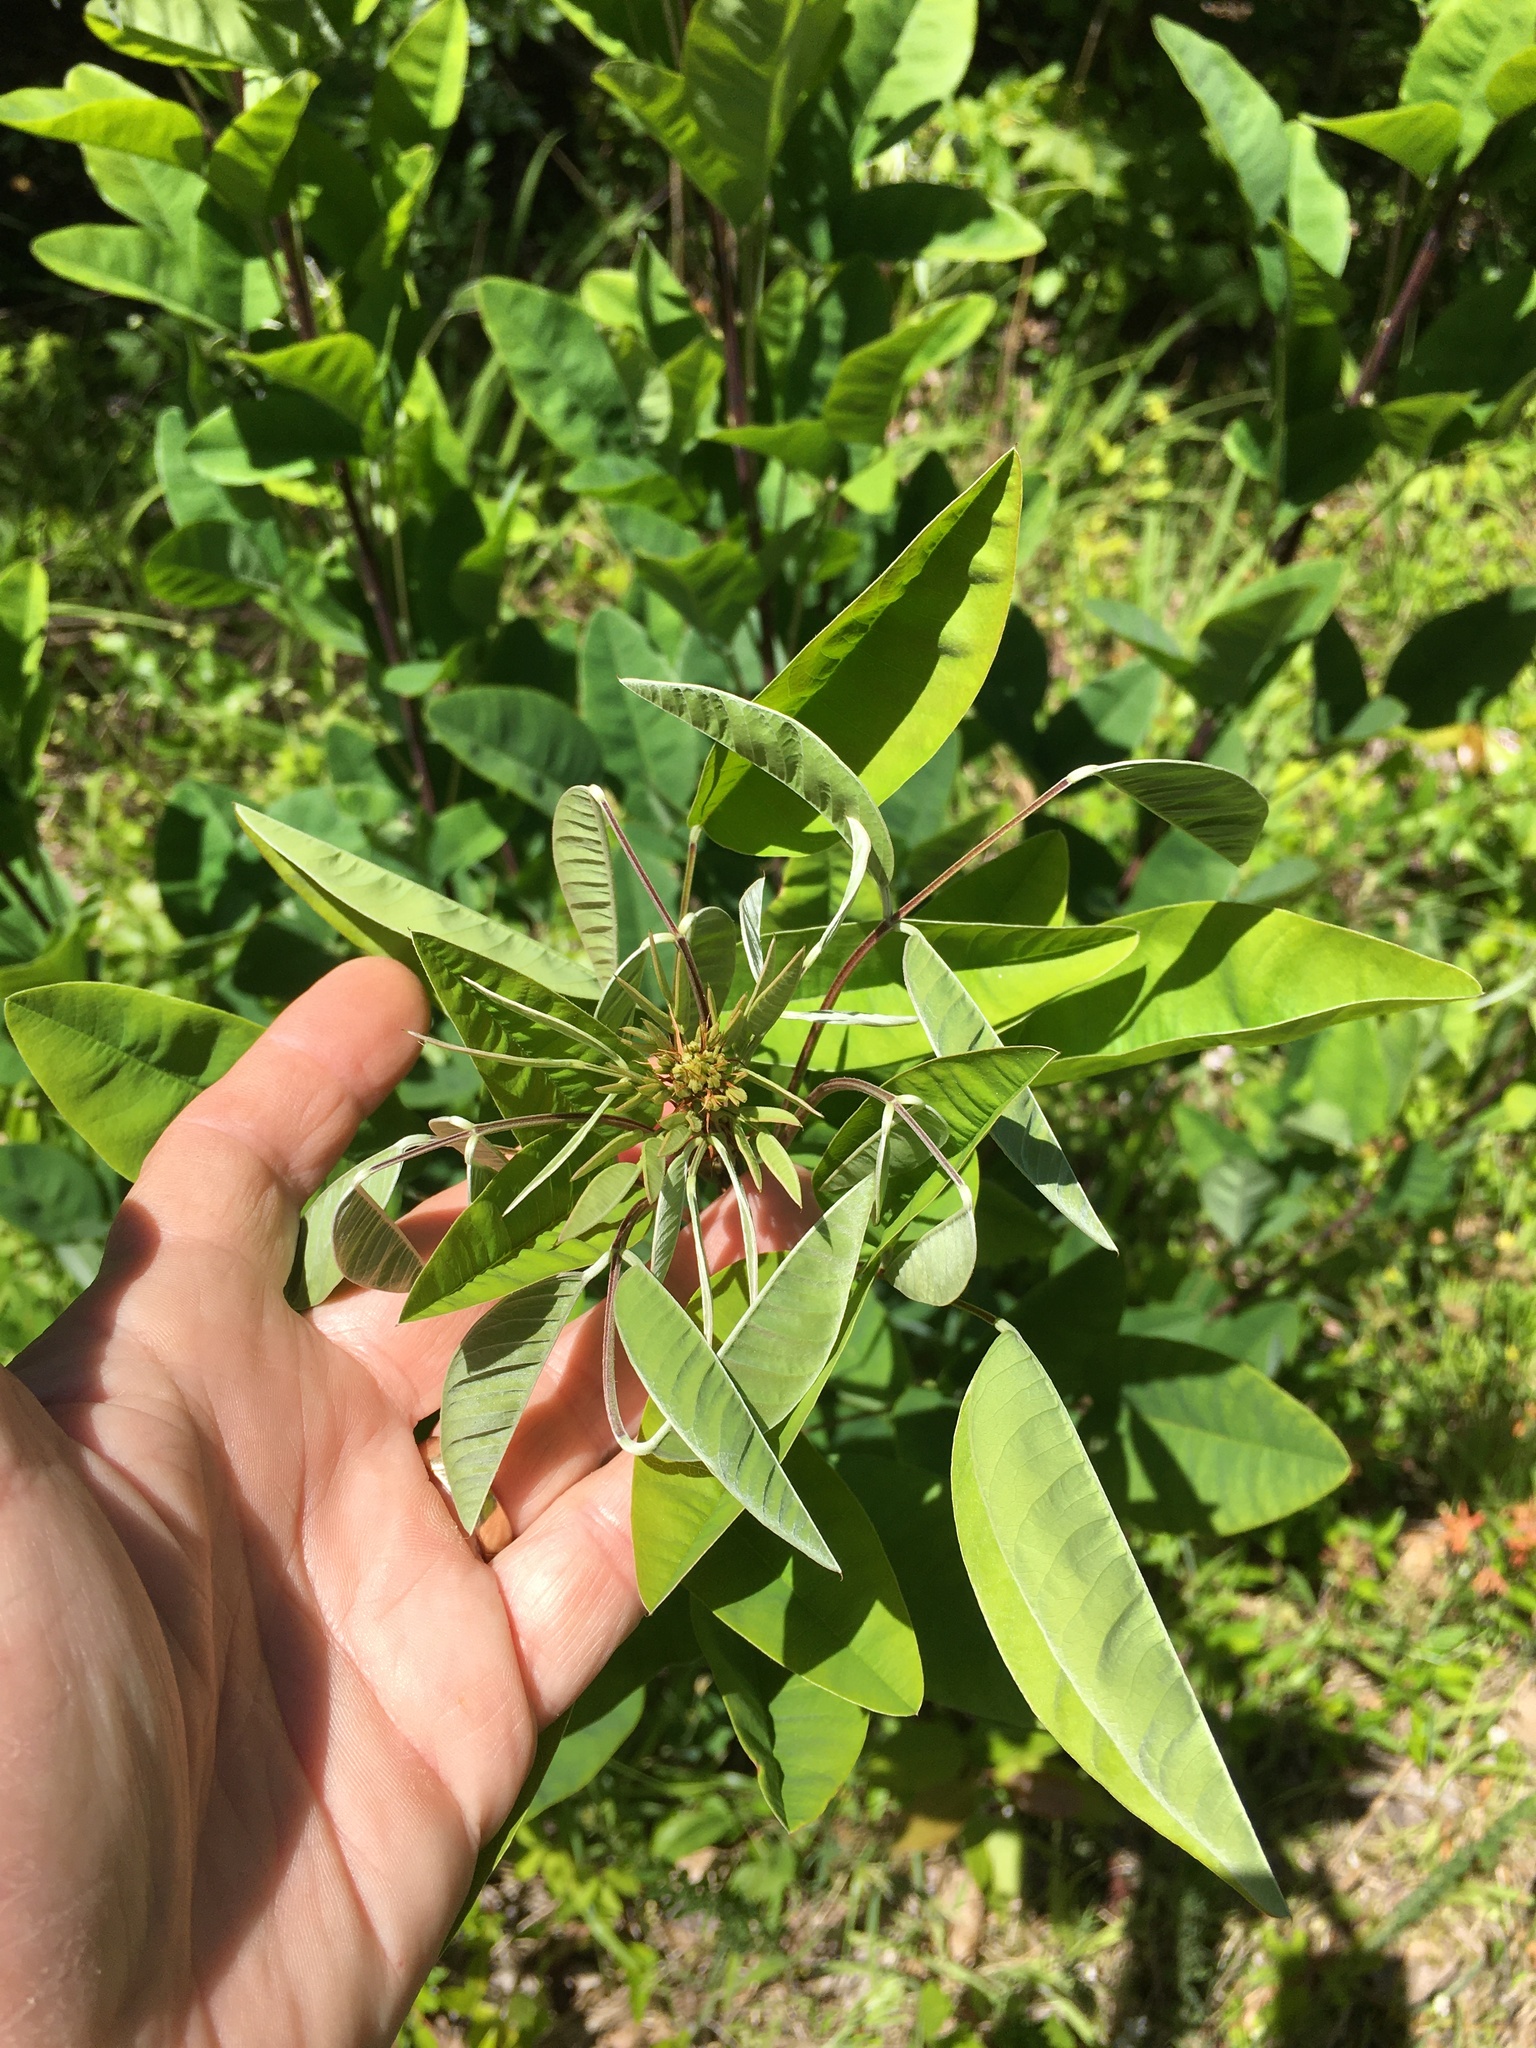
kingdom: Plantae
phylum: Tracheophyta
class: Magnoliopsida
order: Fabales
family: Fabaceae
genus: Lespedeza
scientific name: Lespedeza bicolor
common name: Shrub lespedeza
